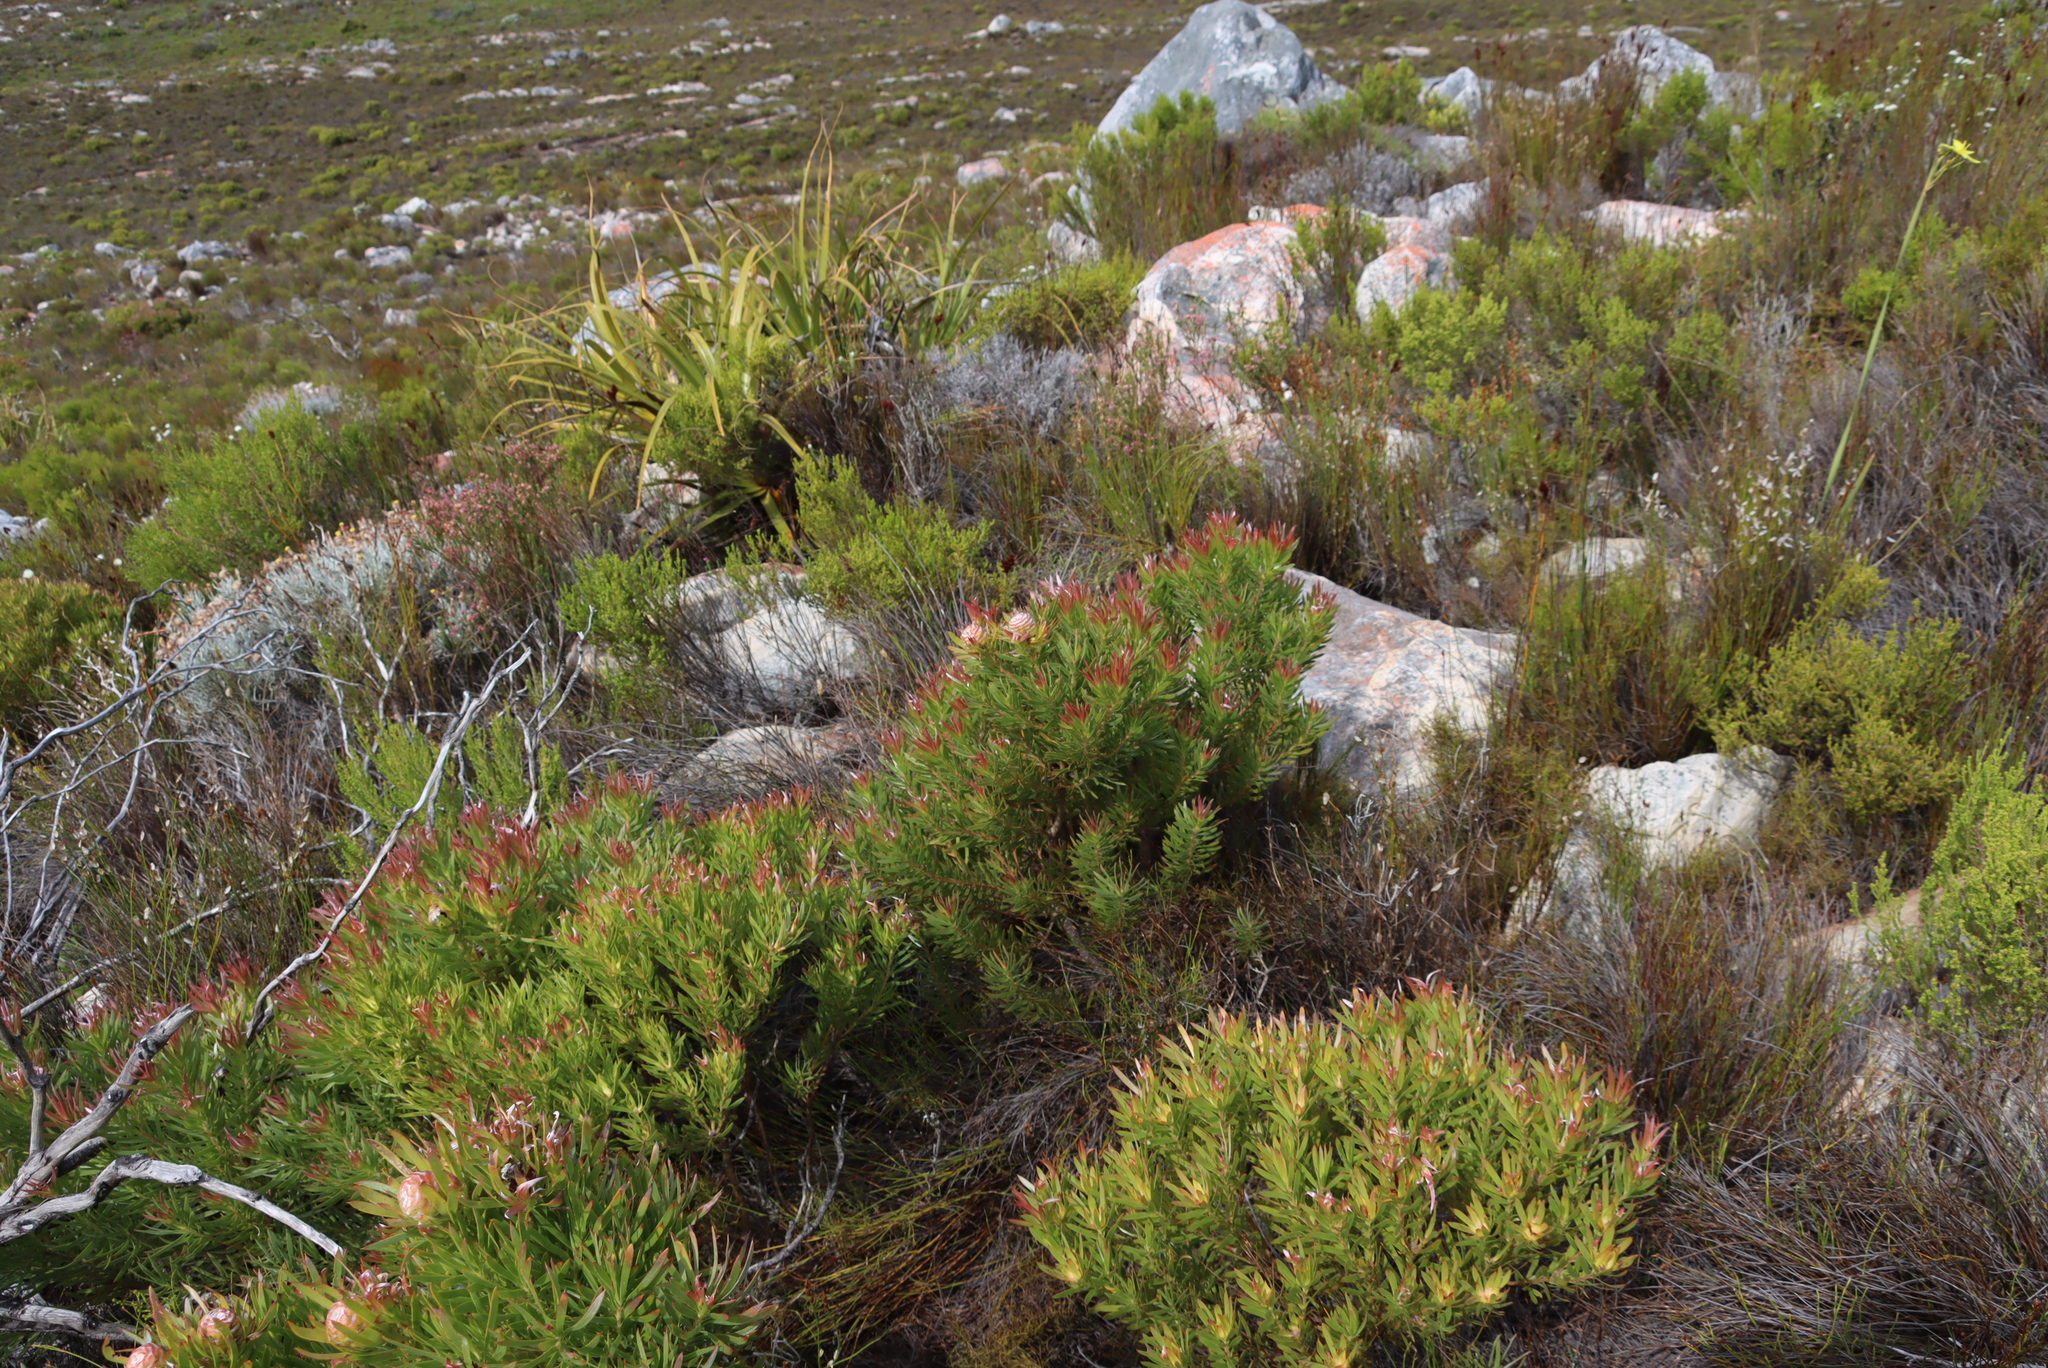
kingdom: Plantae
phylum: Tracheophyta
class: Magnoliopsida
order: Proteales
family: Proteaceae
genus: Leucadendron
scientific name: Leucadendron xanthoconus
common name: Sickle-leaf conebush
